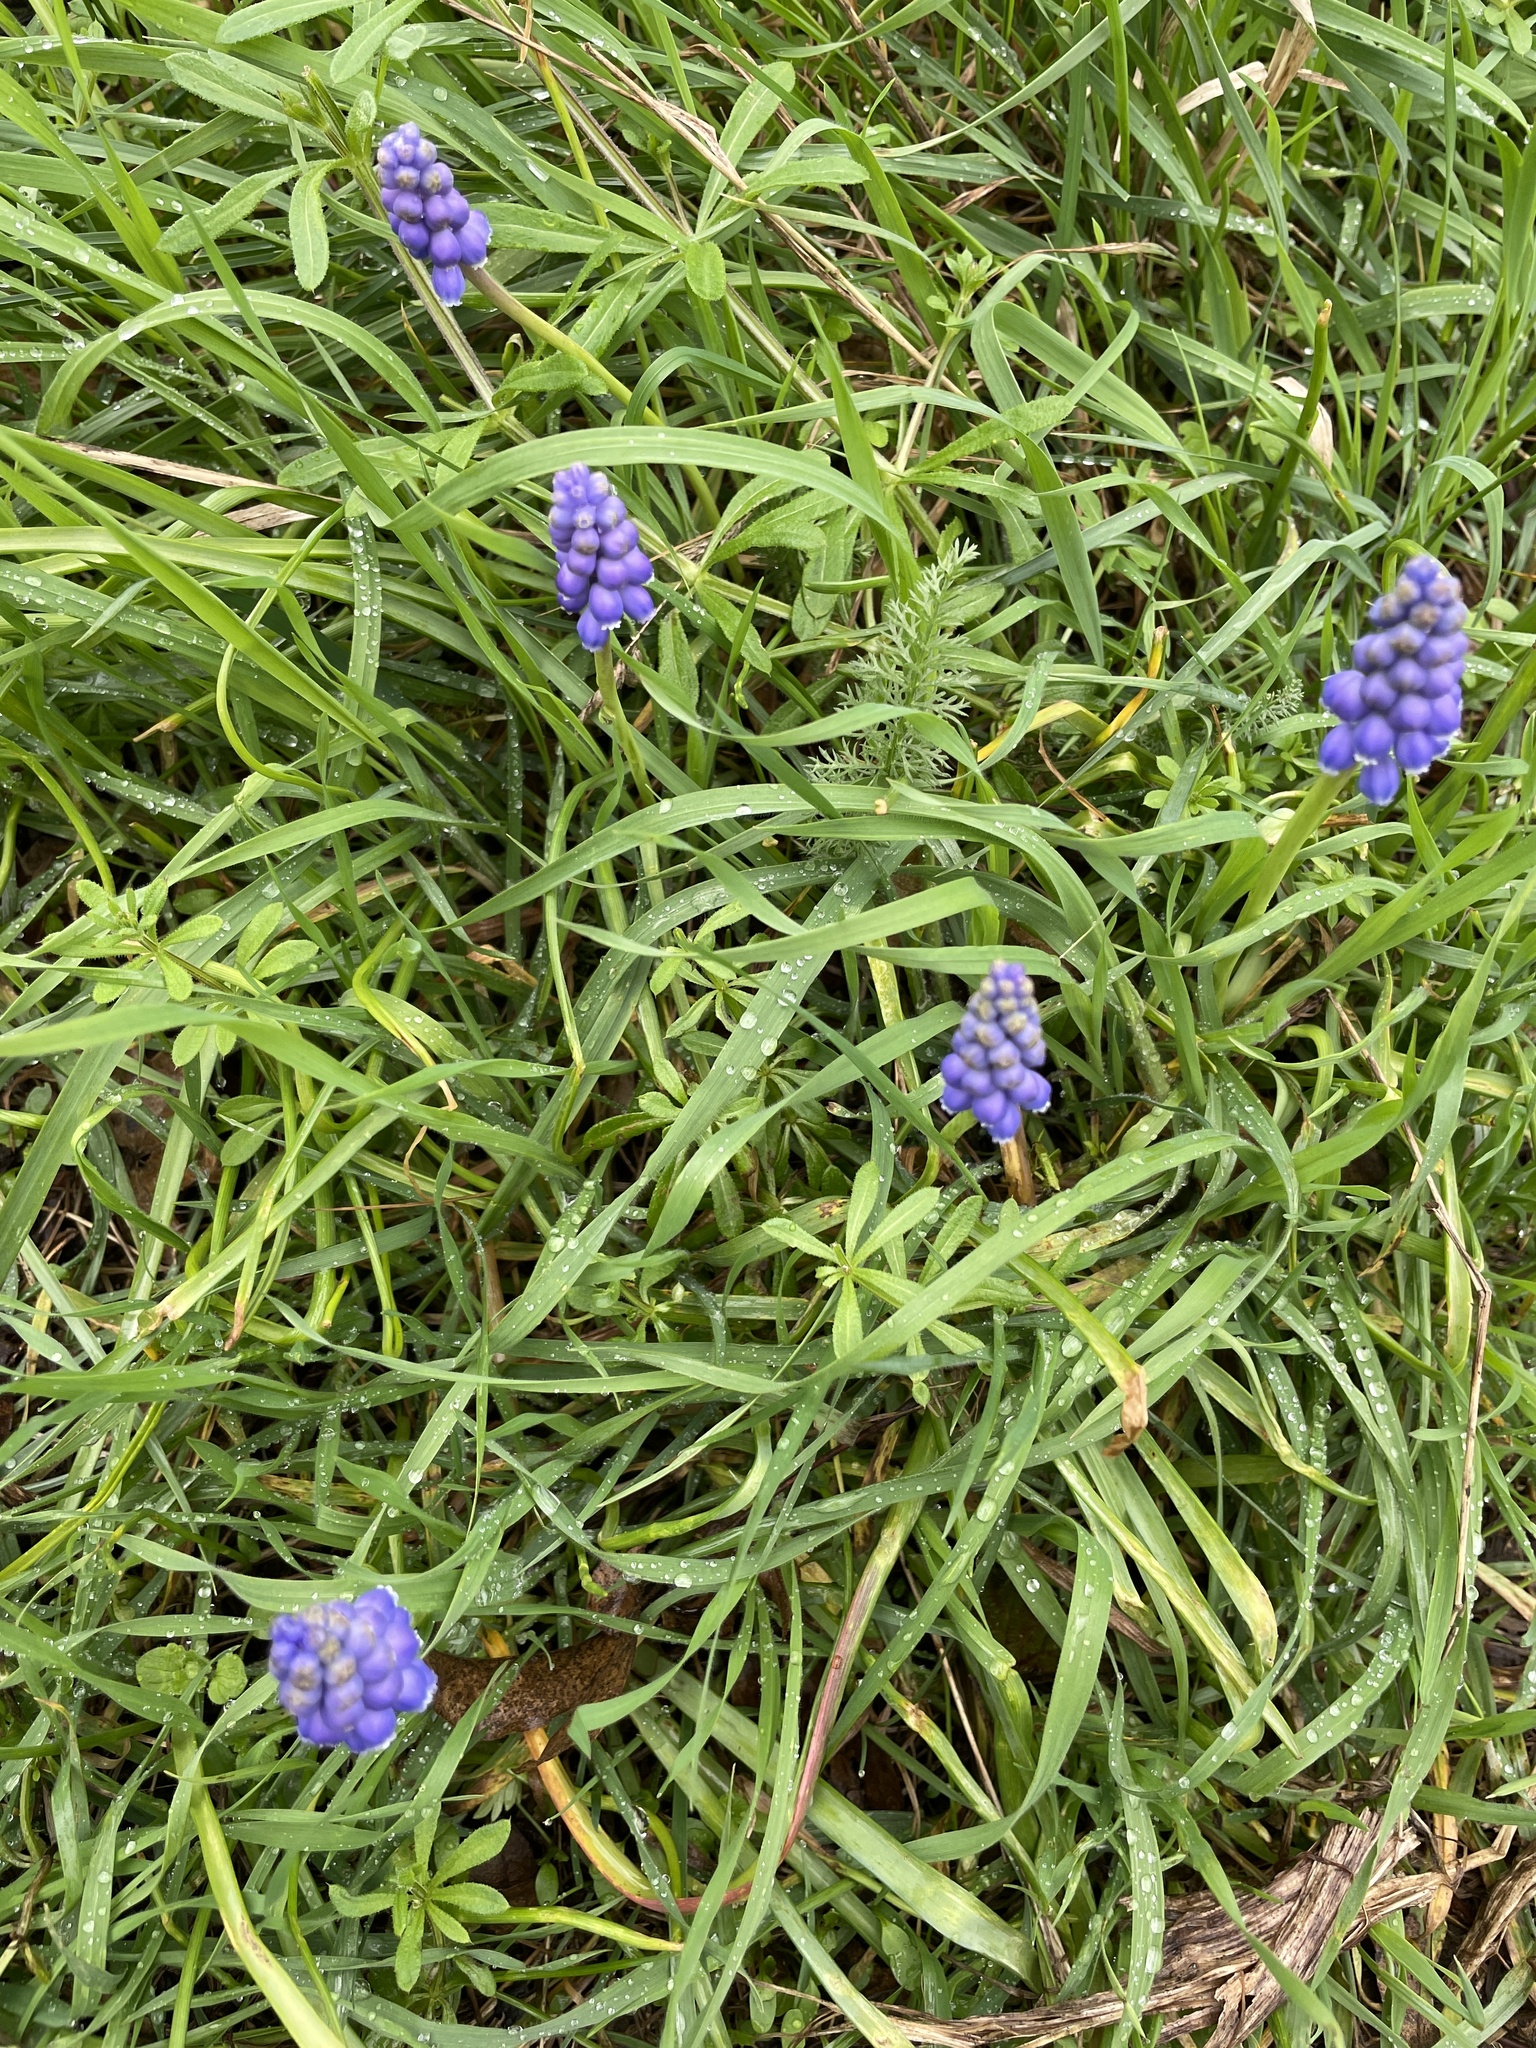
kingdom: Plantae
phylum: Tracheophyta
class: Liliopsida
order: Asparagales
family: Asparagaceae
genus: Muscari
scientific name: Muscari armeniacum
